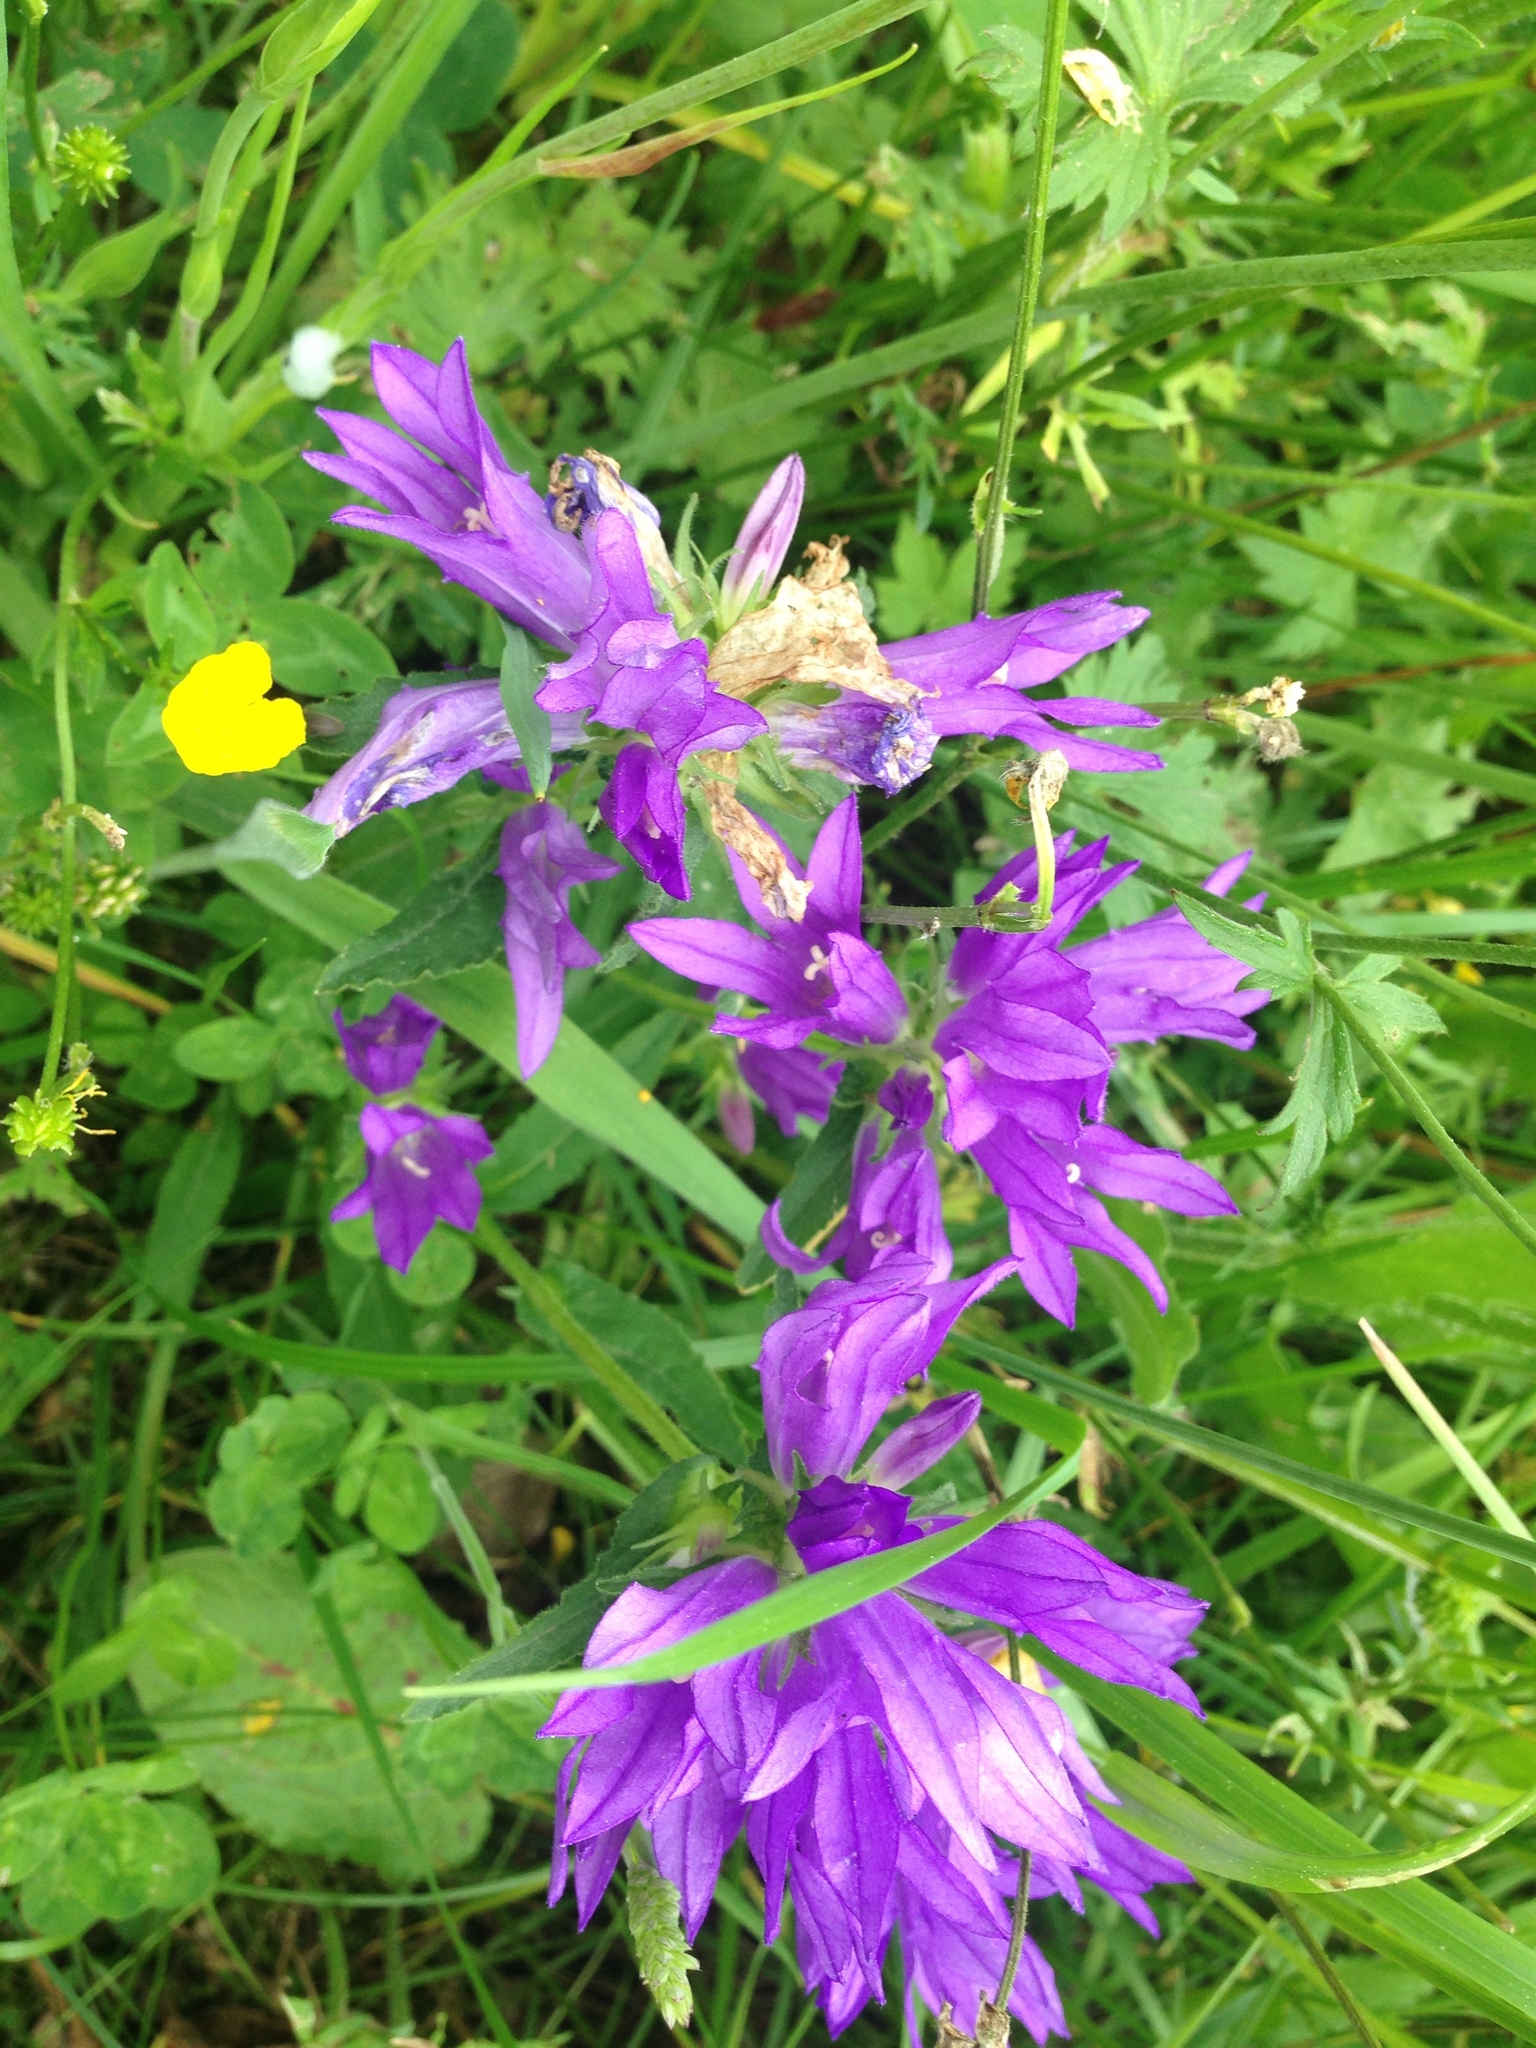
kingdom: Plantae
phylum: Tracheophyta
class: Magnoliopsida
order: Asterales
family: Campanulaceae
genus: Campanula
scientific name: Campanula glomerata
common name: Clustered bellflower
